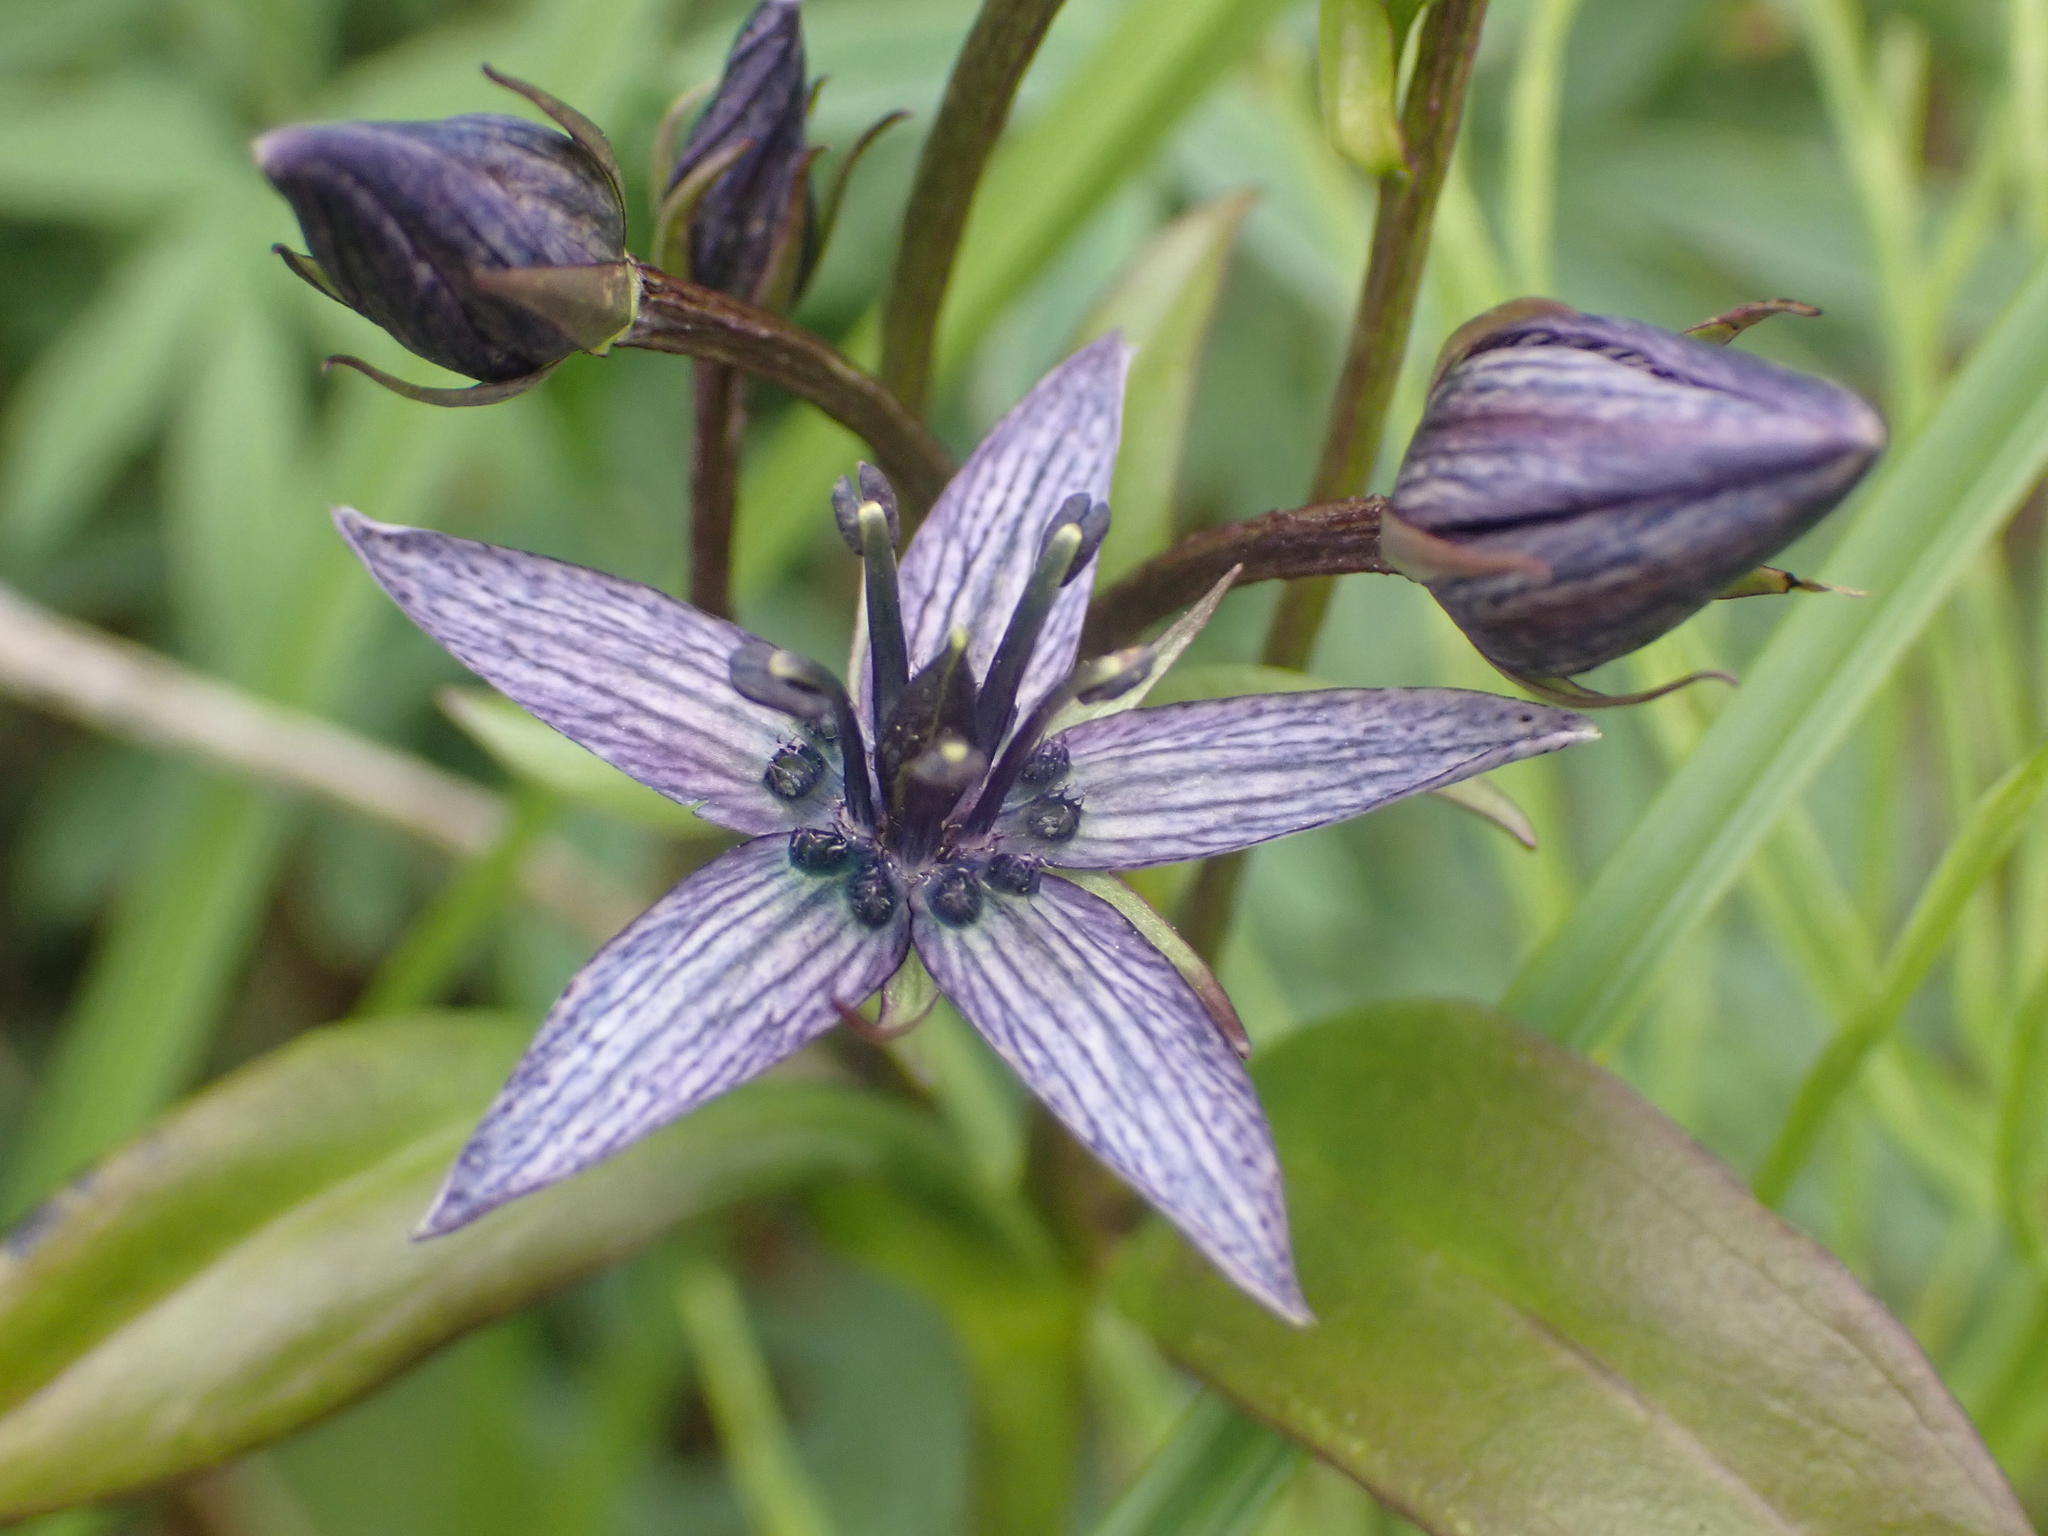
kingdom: Plantae
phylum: Tracheophyta
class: Magnoliopsida
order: Gentianales
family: Gentianaceae
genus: Swertia
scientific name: Swertia perennis
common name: Alpine bog swertia
